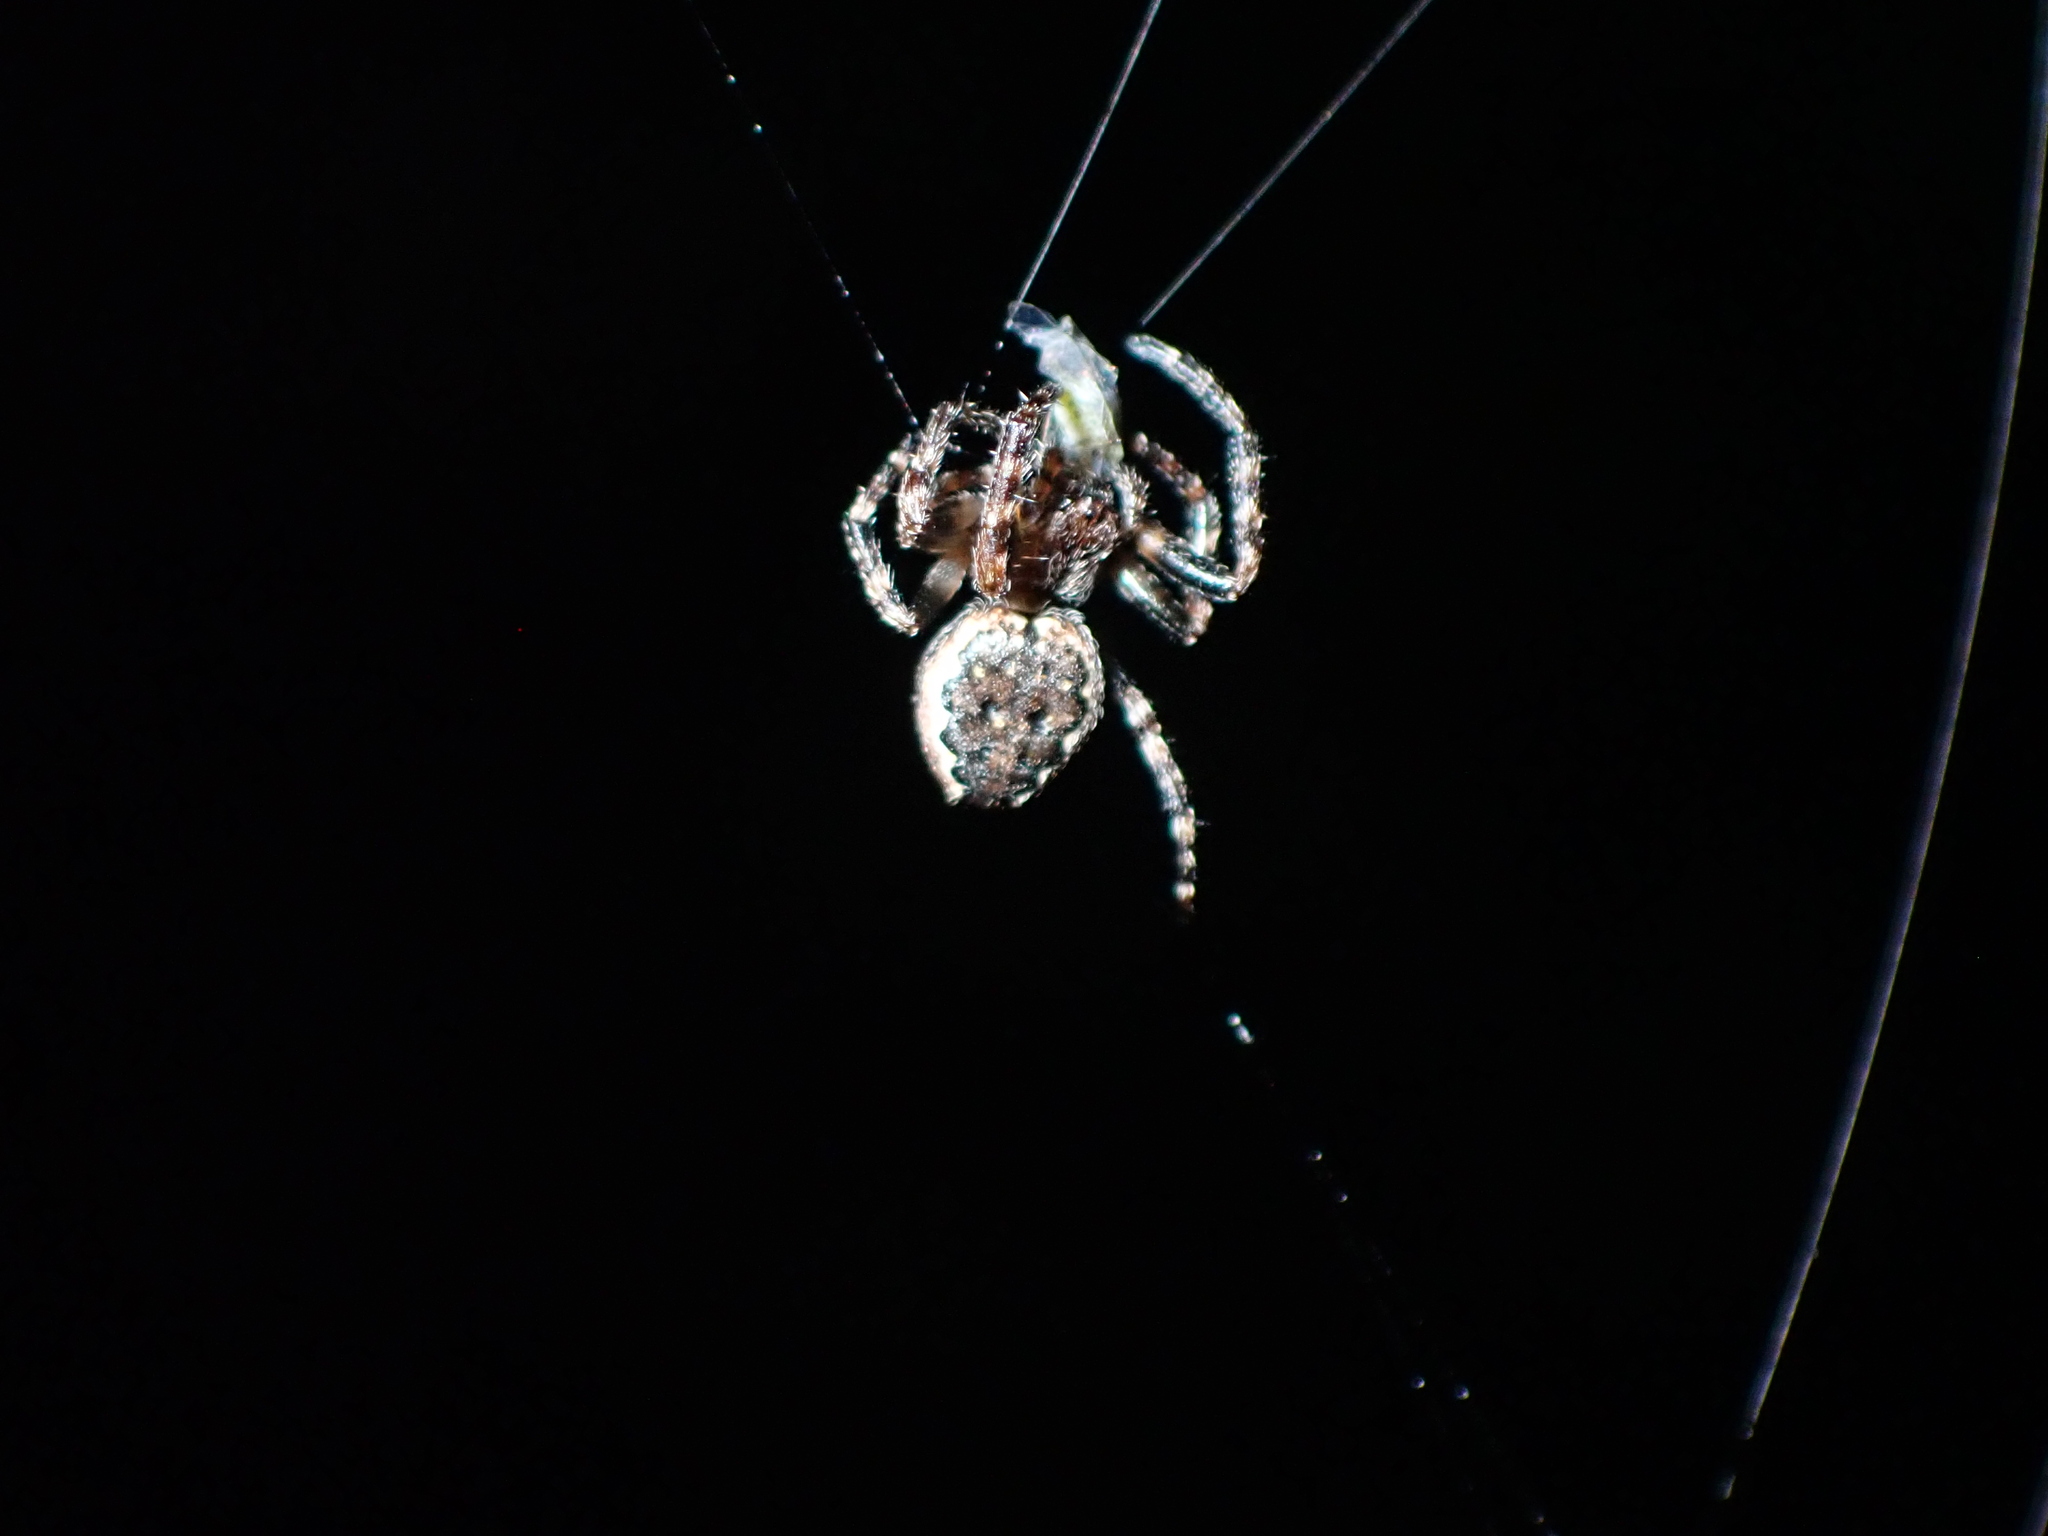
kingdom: Animalia
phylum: Arthropoda
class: Arachnida
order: Araneae
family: Araneidae
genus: Nuctenea
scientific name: Nuctenea umbratica
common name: Toad spider
